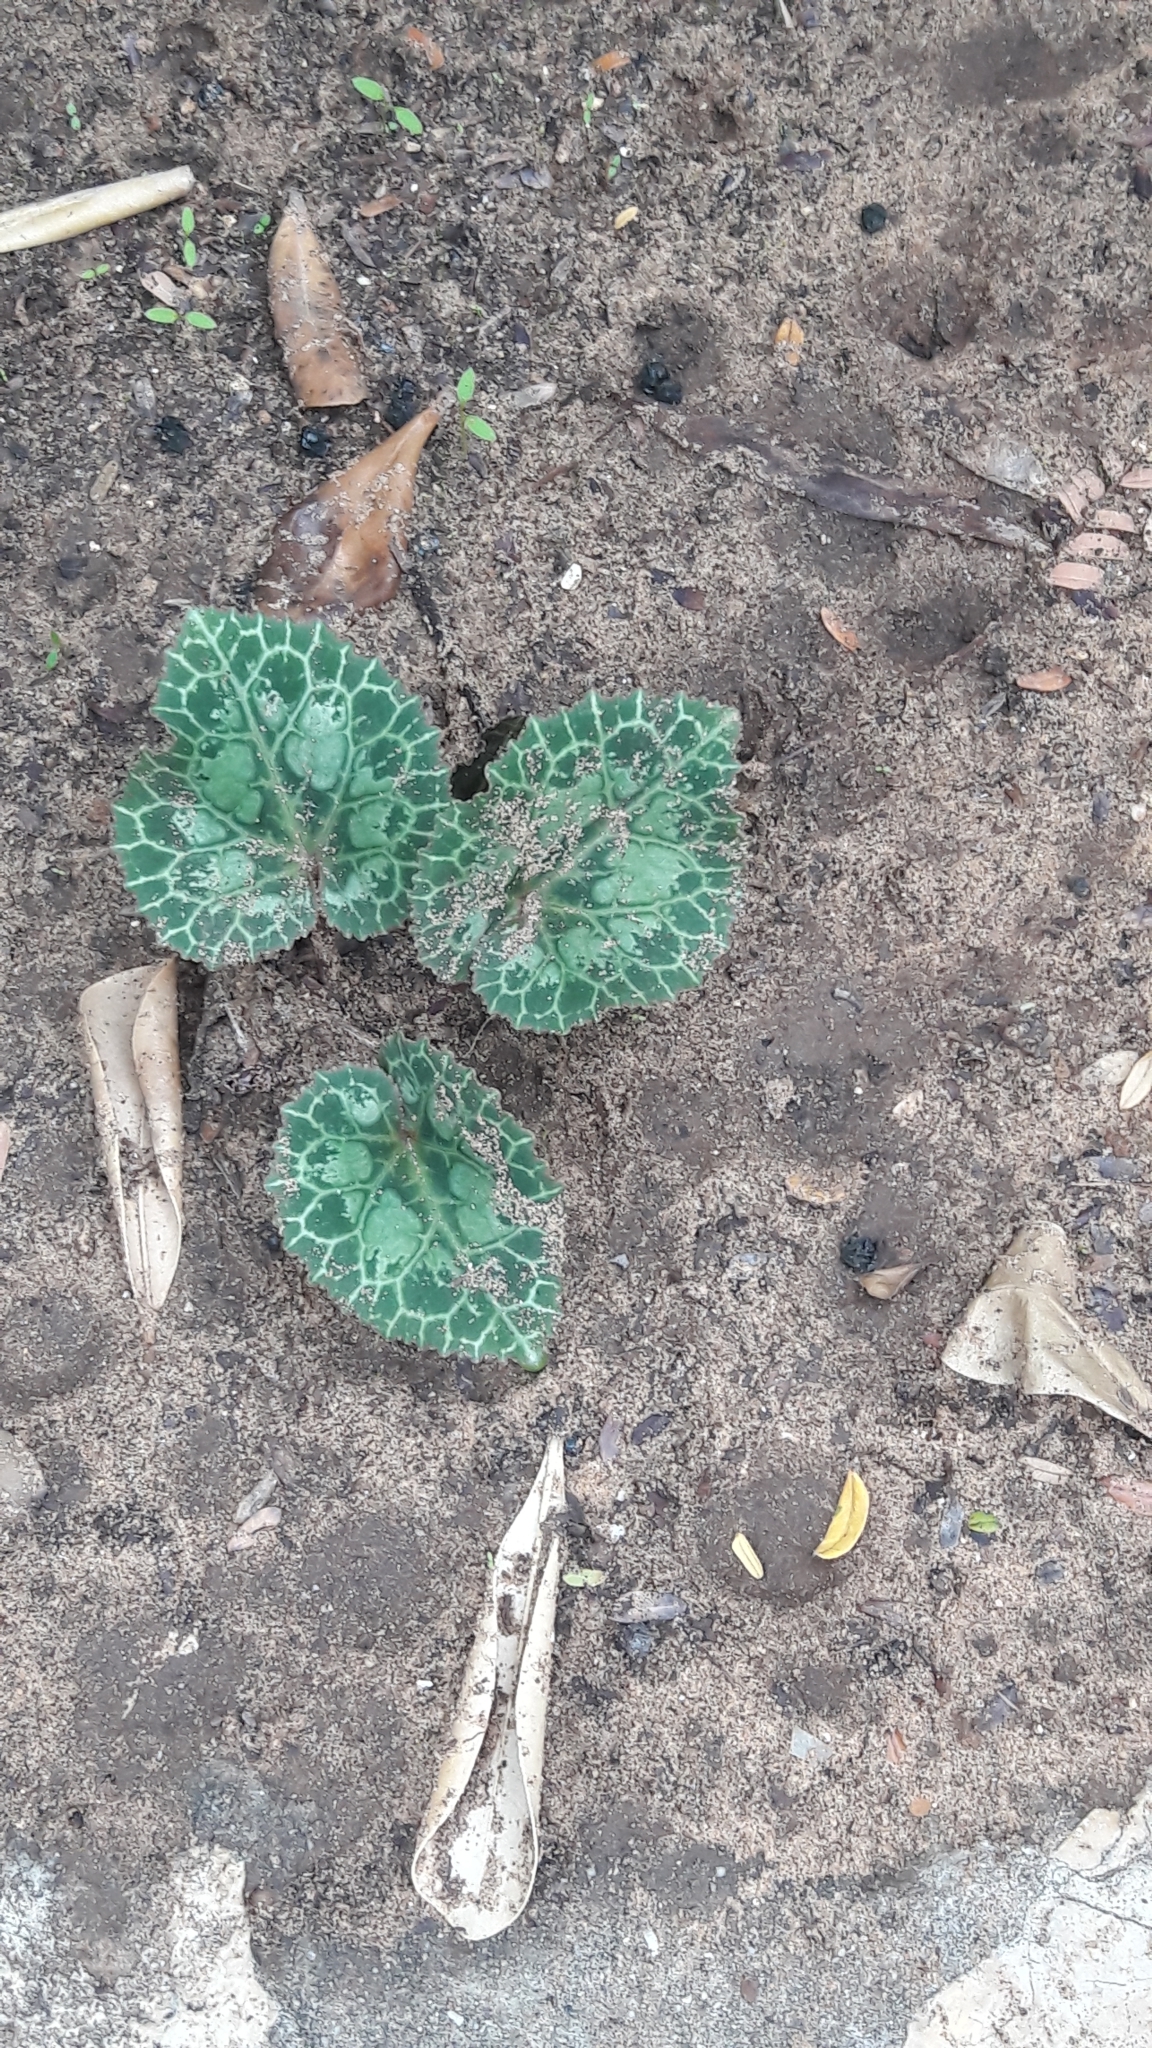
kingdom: Plantae
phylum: Tracheophyta
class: Magnoliopsida
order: Ericales
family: Primulaceae
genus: Cyclamen
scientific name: Cyclamen persicum
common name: Florist's cyclamen
